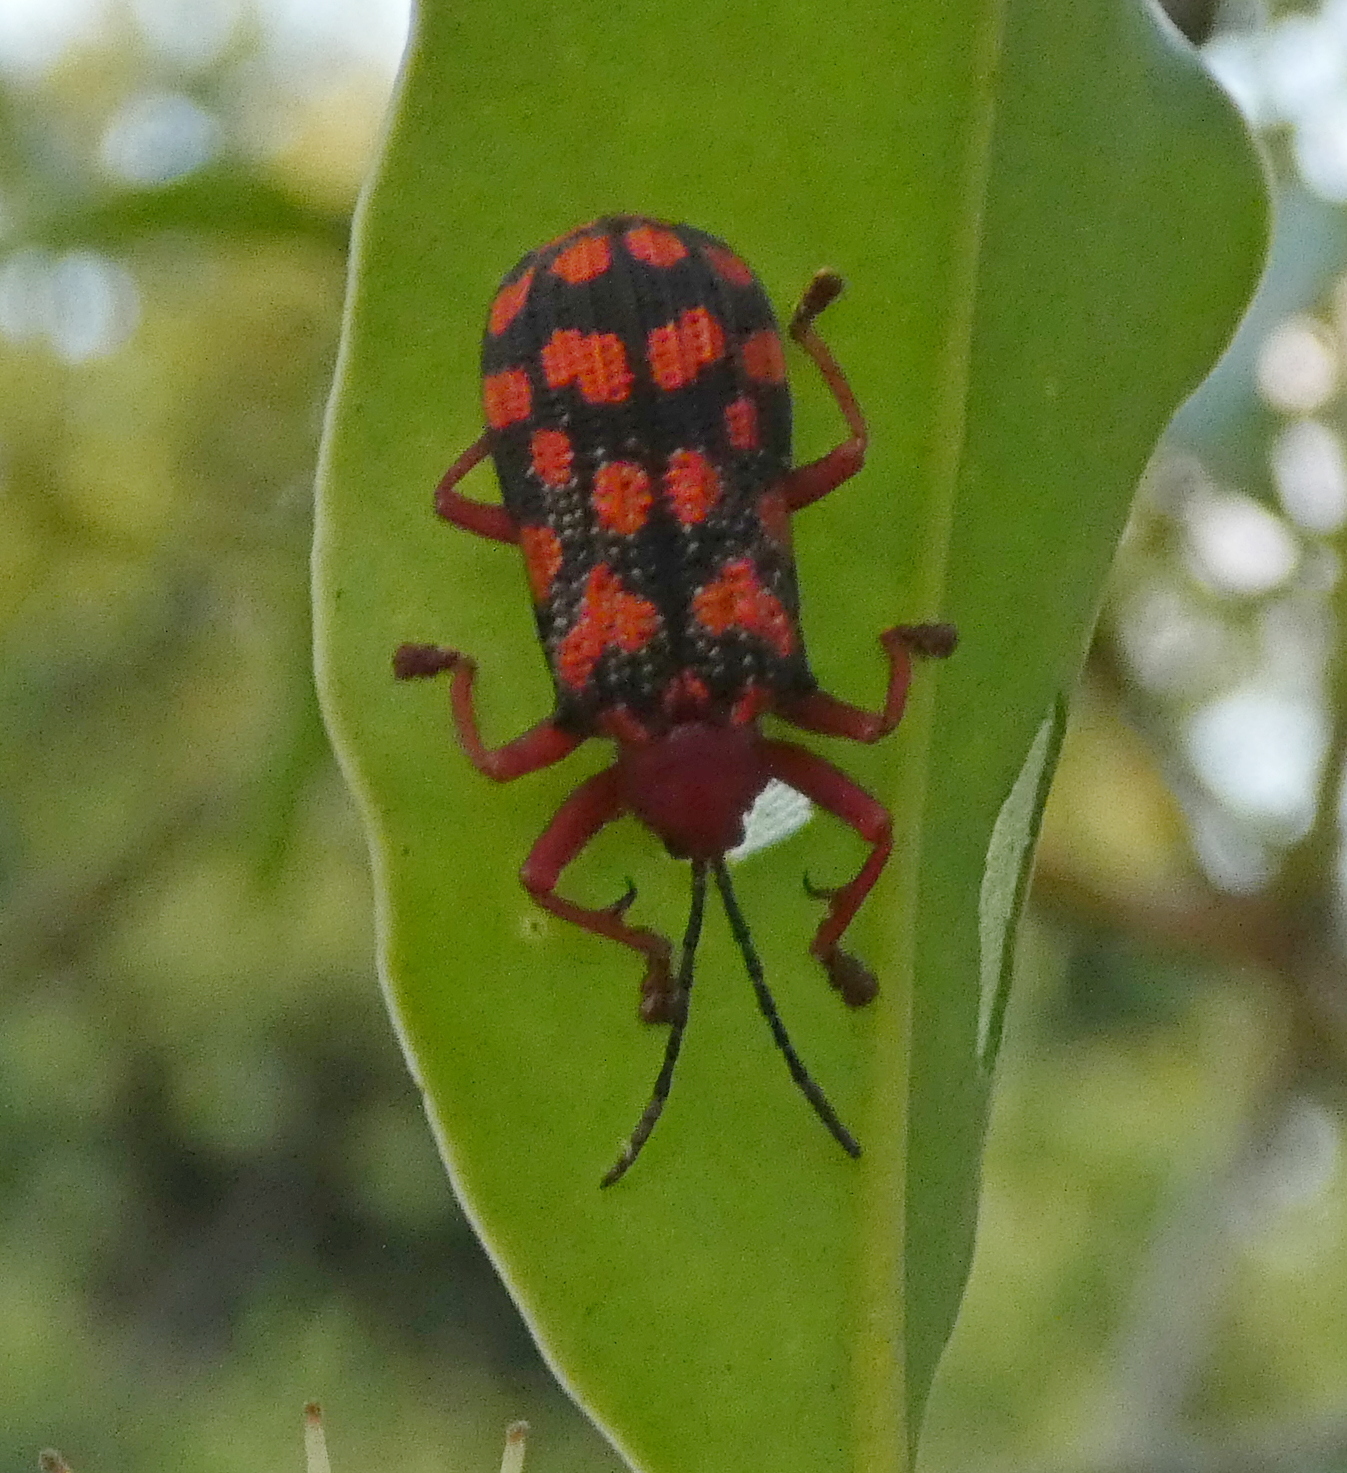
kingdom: Animalia
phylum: Arthropoda
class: Insecta
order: Coleoptera
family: Chrysomelidae
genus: Sceloenopla
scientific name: Sceloenopla maculata
